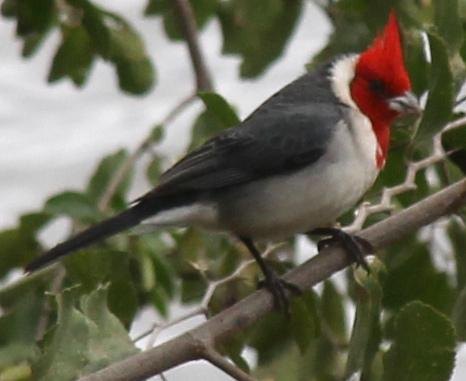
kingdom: Animalia
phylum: Chordata
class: Aves
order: Passeriformes
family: Thraupidae
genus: Paroaria
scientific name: Paroaria coronata
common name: Red-crested cardinal
